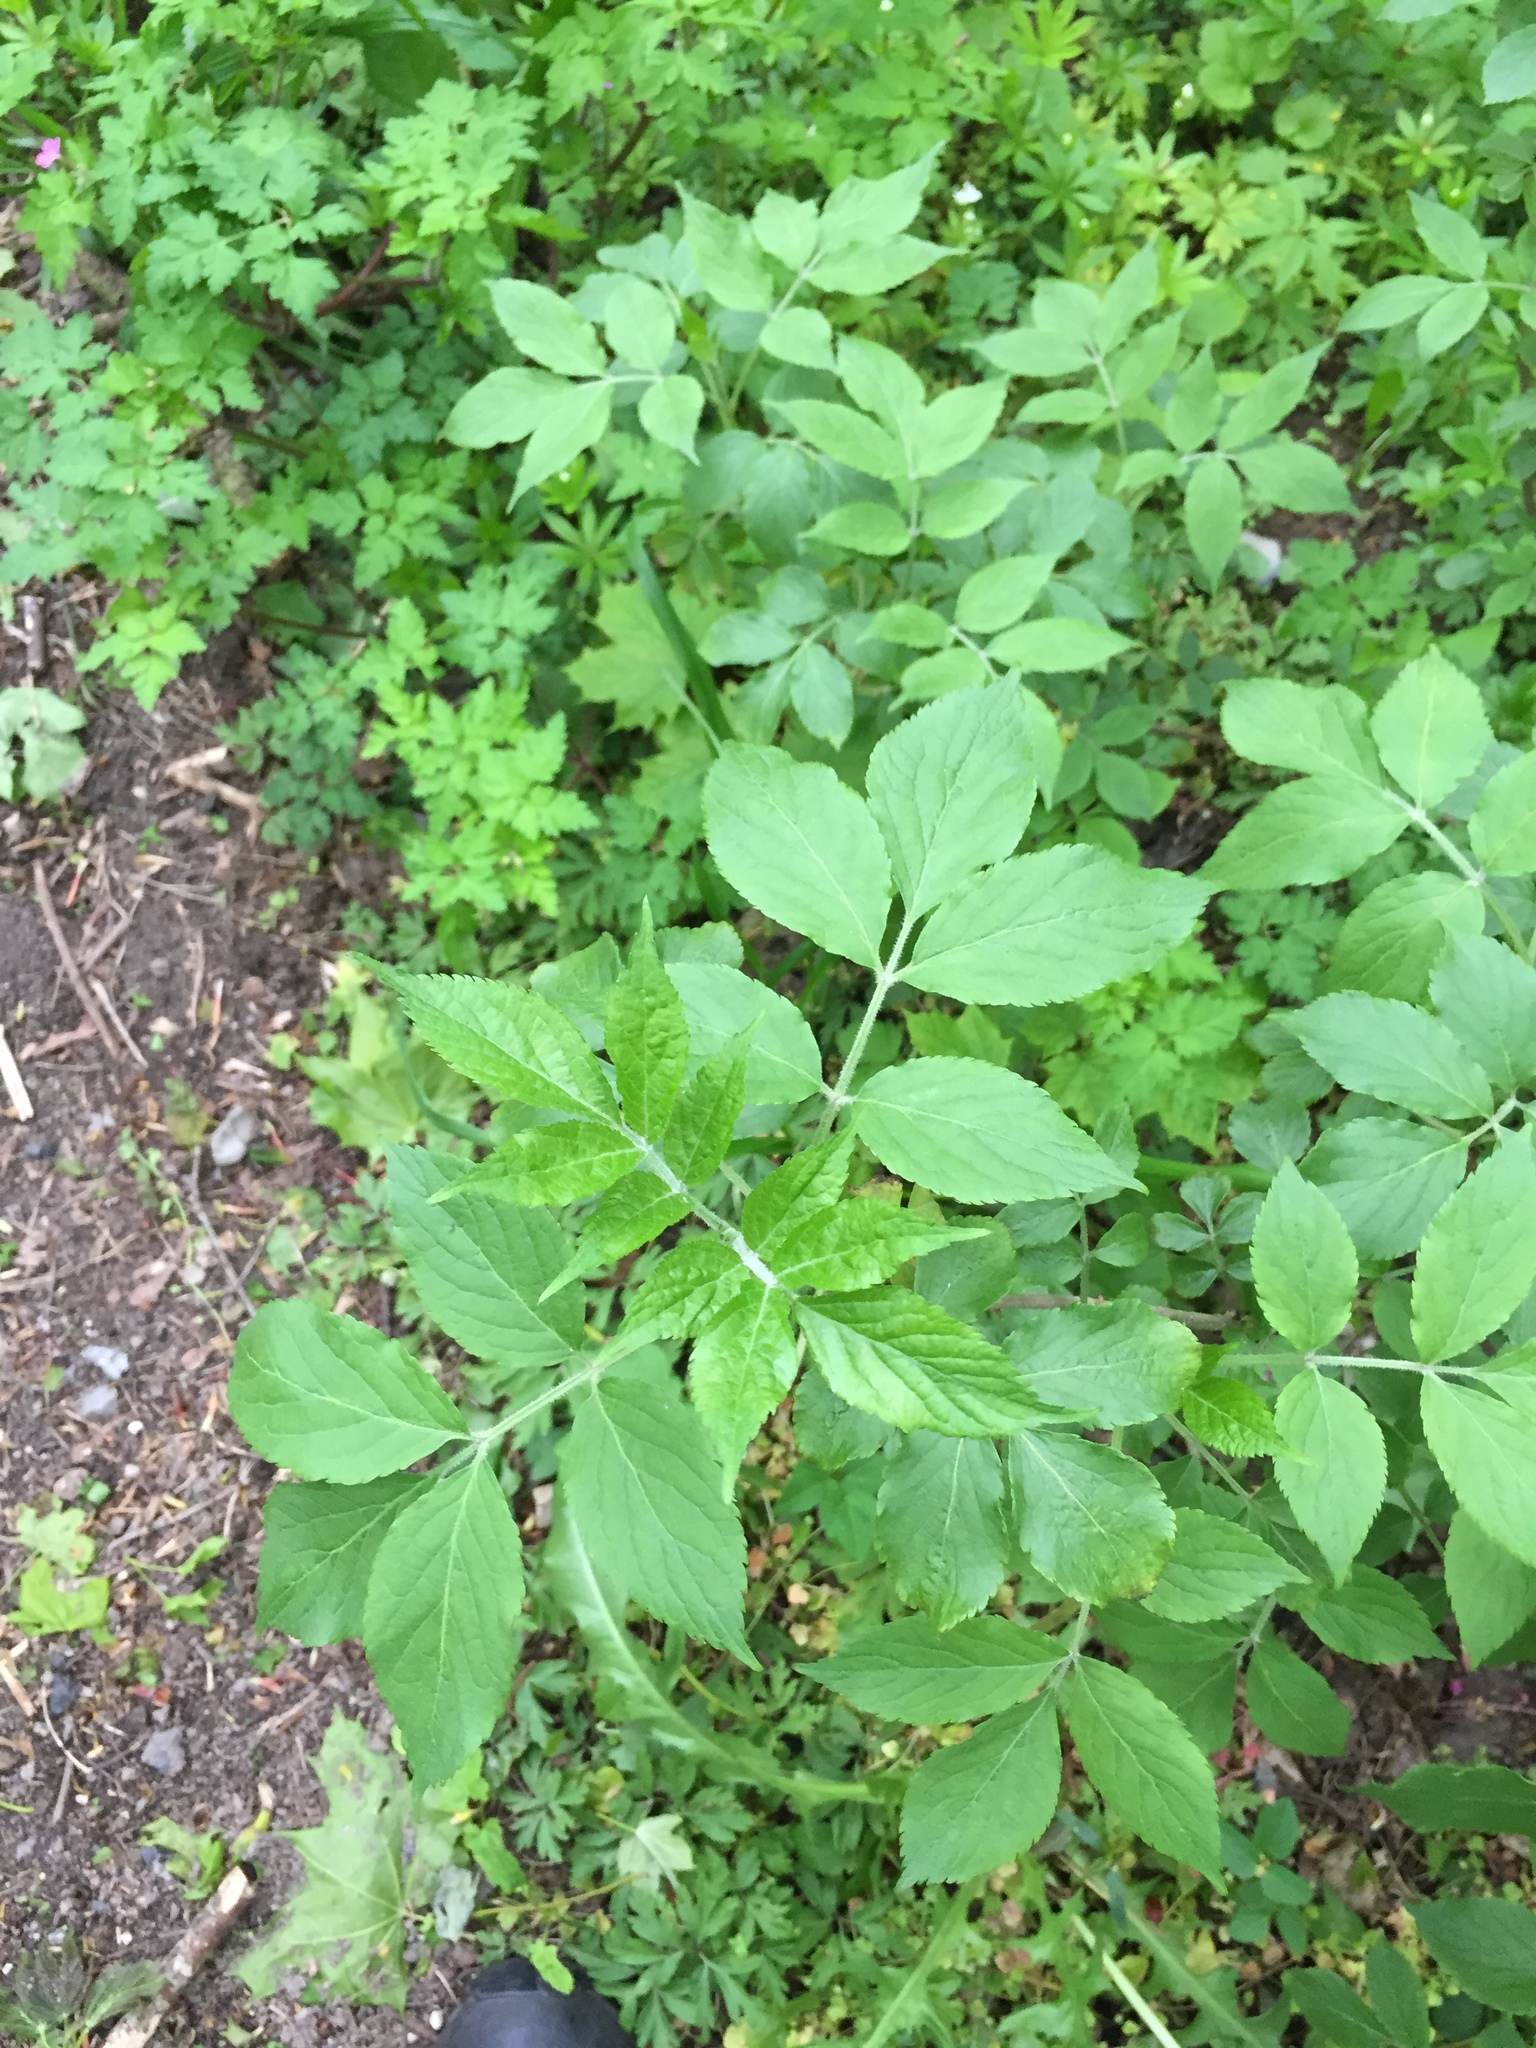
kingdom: Plantae
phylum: Tracheophyta
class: Magnoliopsida
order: Dipsacales
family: Viburnaceae
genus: Sambucus
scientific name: Sambucus nigra
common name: Elder
